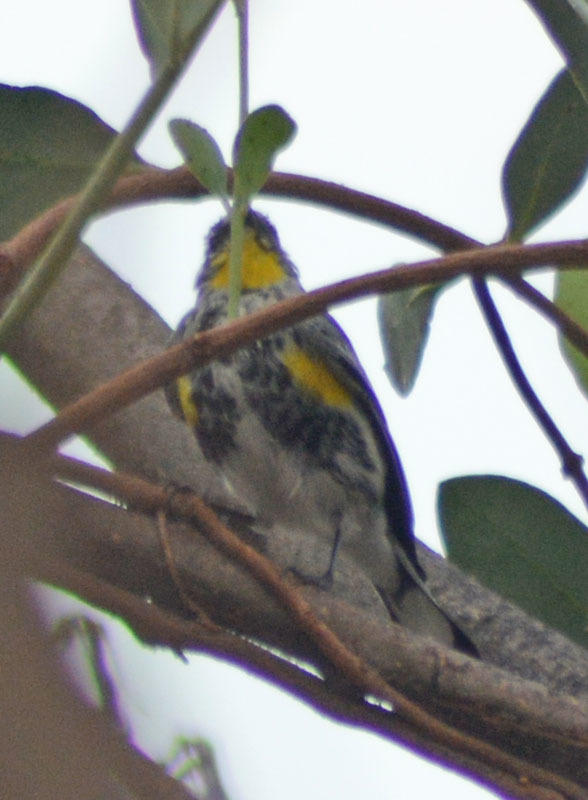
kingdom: Animalia
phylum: Chordata
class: Aves
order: Passeriformes
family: Parulidae
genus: Setophaga
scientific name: Setophaga auduboni
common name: Audubon's warbler
